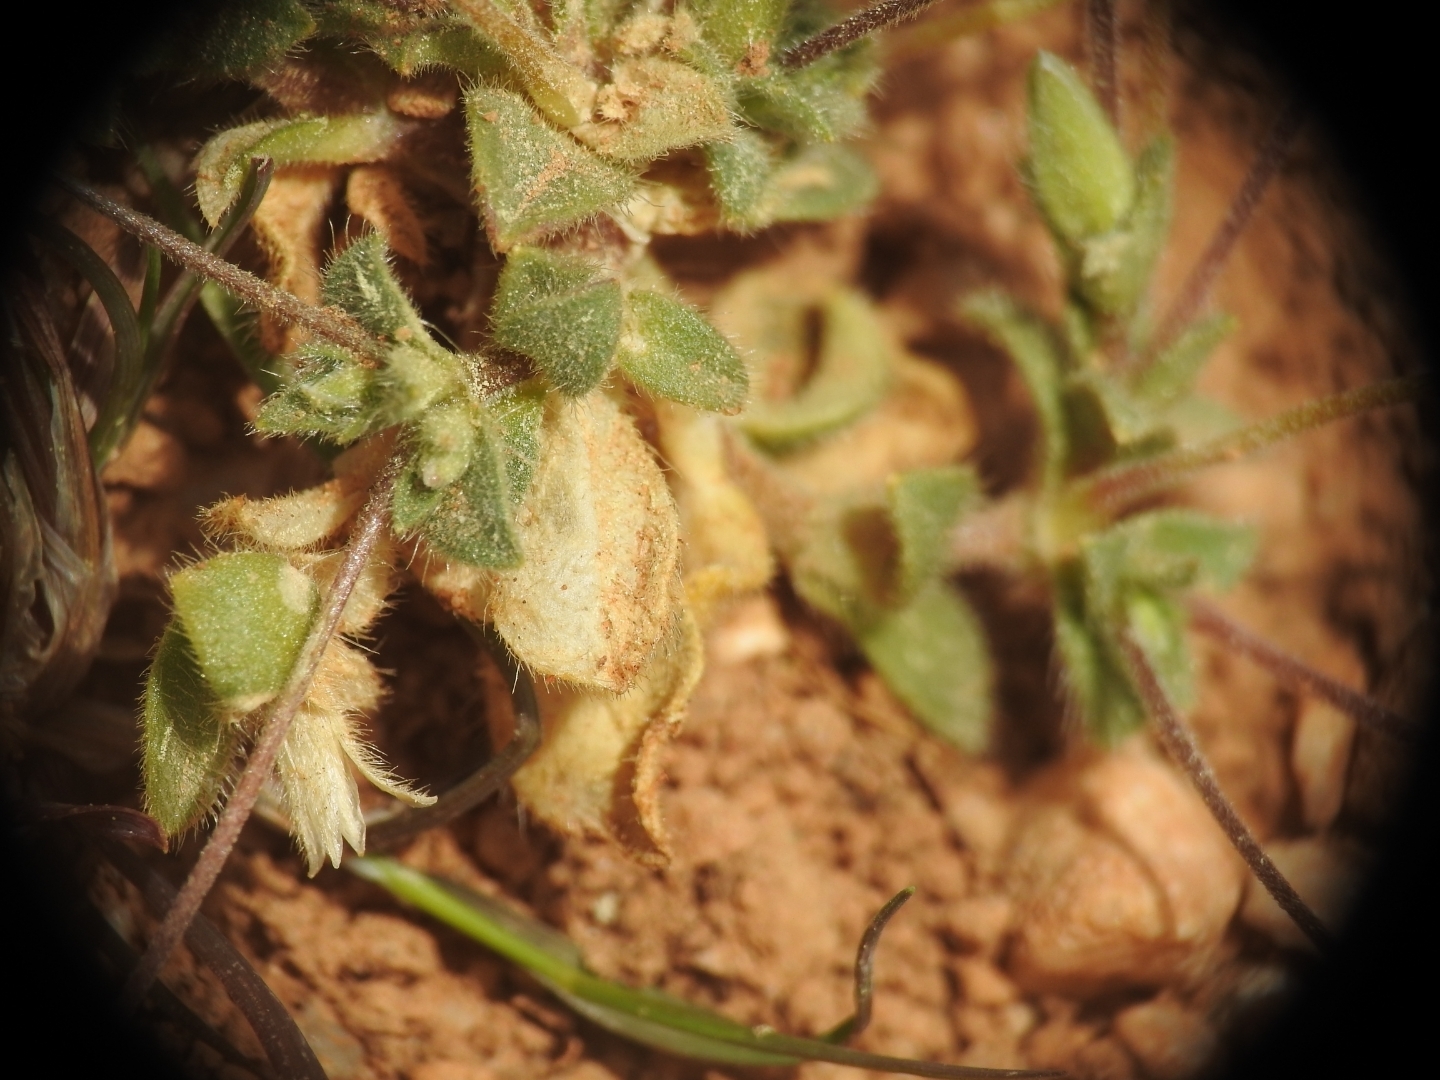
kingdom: Plantae
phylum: Tracheophyta
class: Magnoliopsida
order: Caryophyllales
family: Caryophyllaceae
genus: Cerastium
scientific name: Cerastium scaposum
